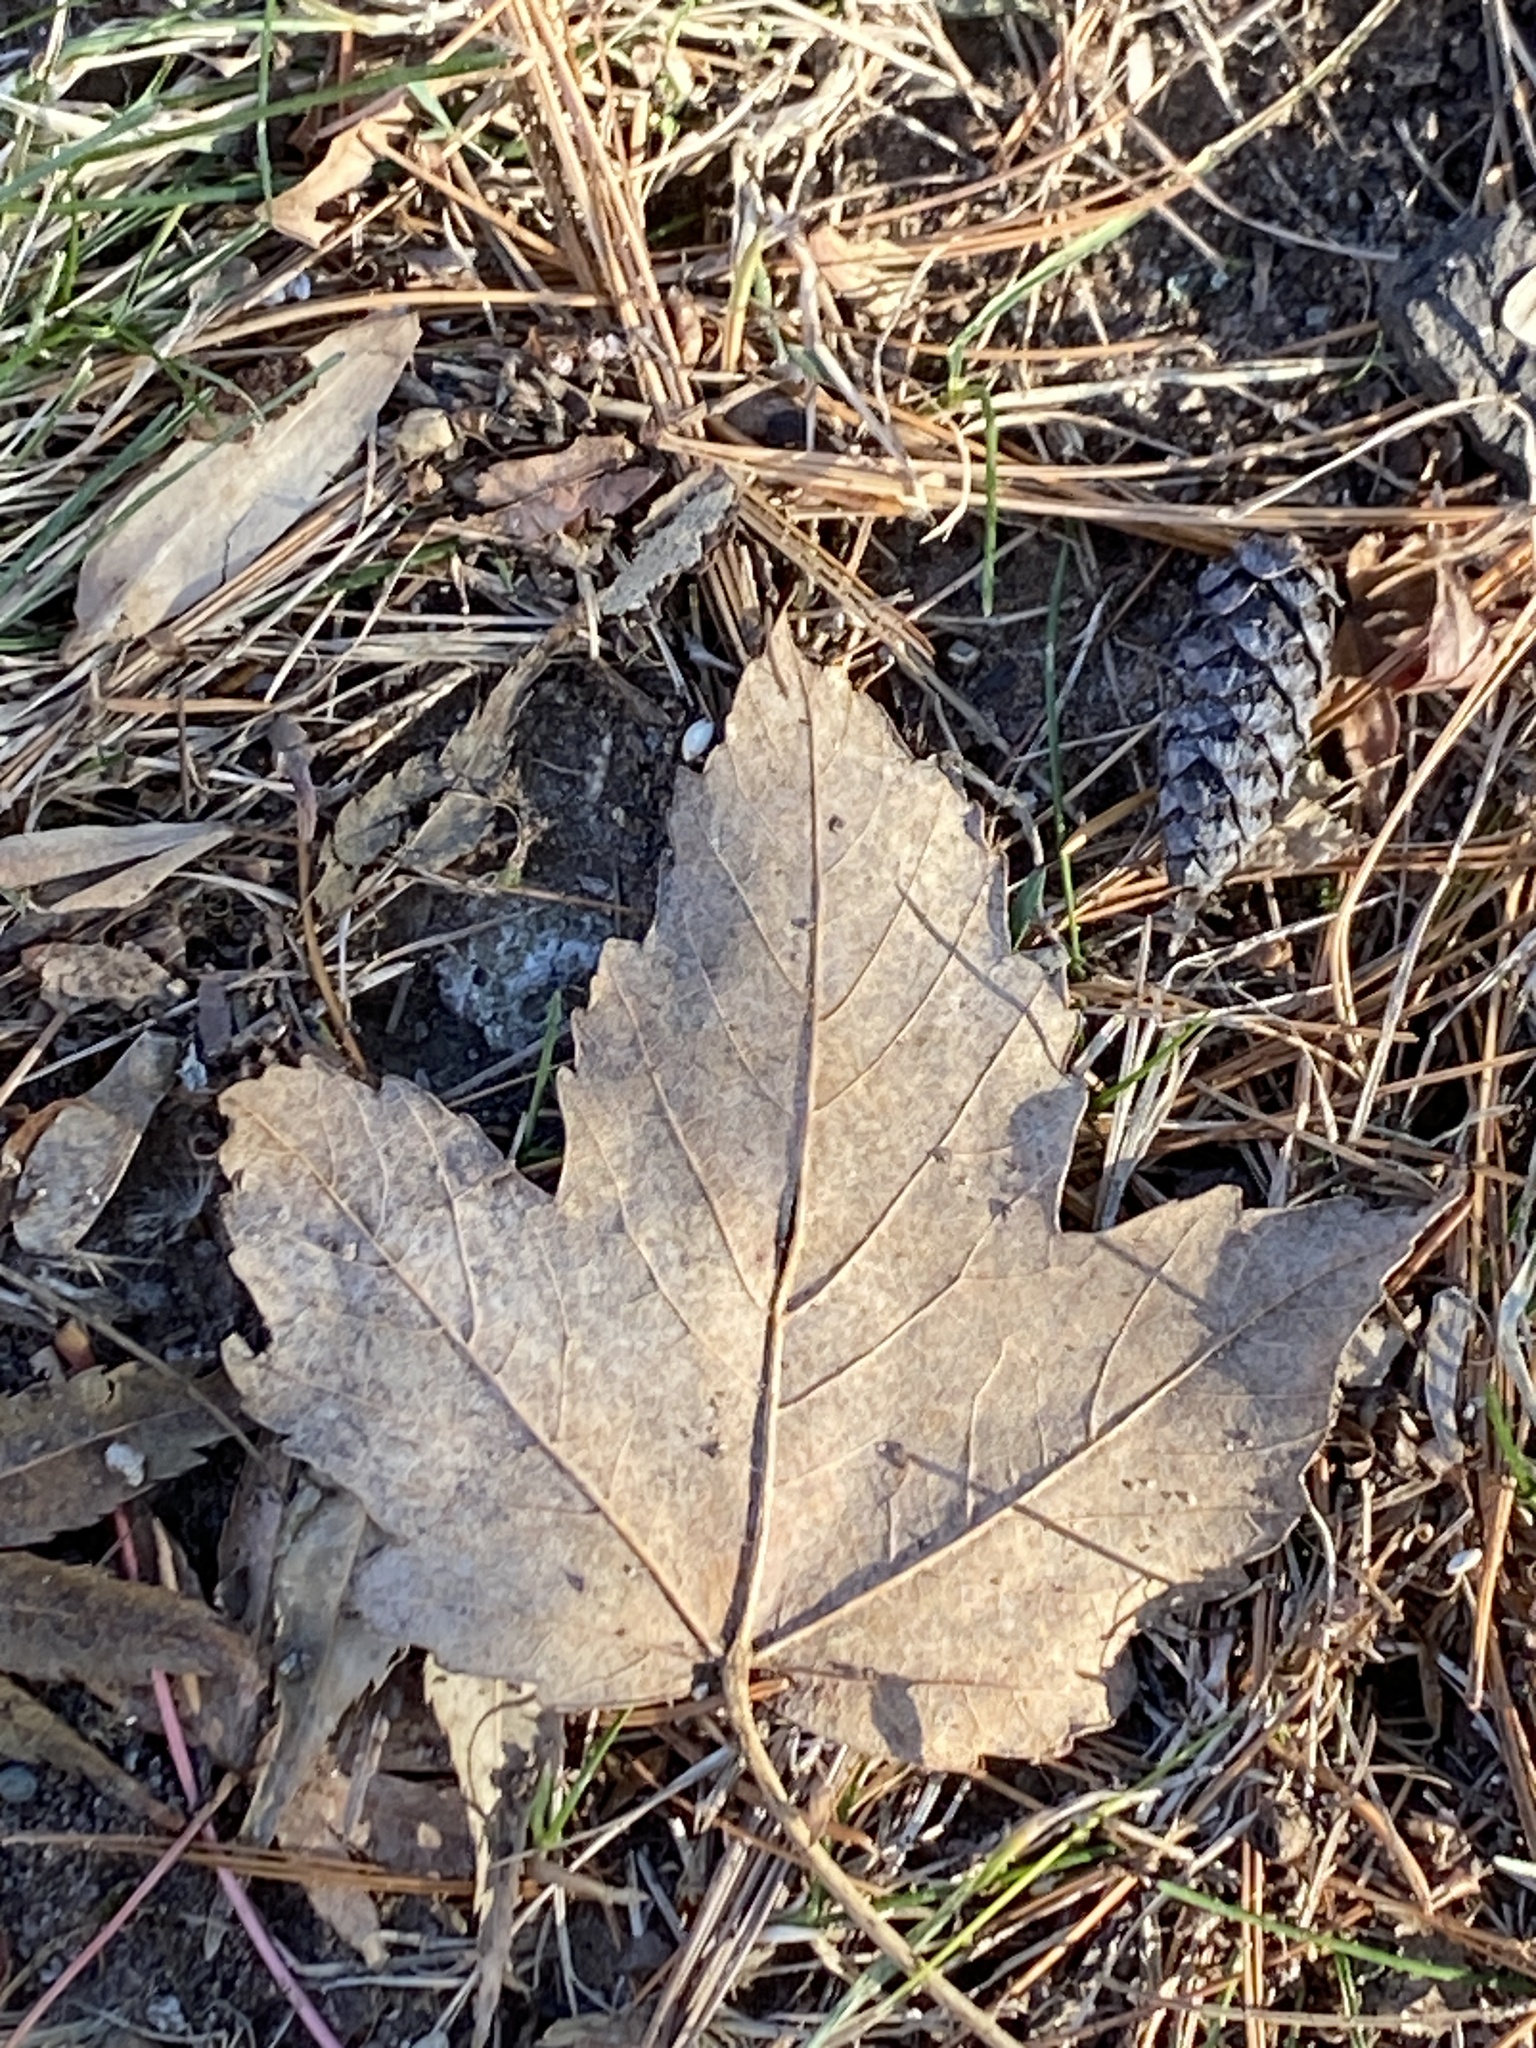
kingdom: Plantae
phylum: Tracheophyta
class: Magnoliopsida
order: Sapindales
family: Sapindaceae
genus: Acer
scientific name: Acer rubrum
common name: Red maple
